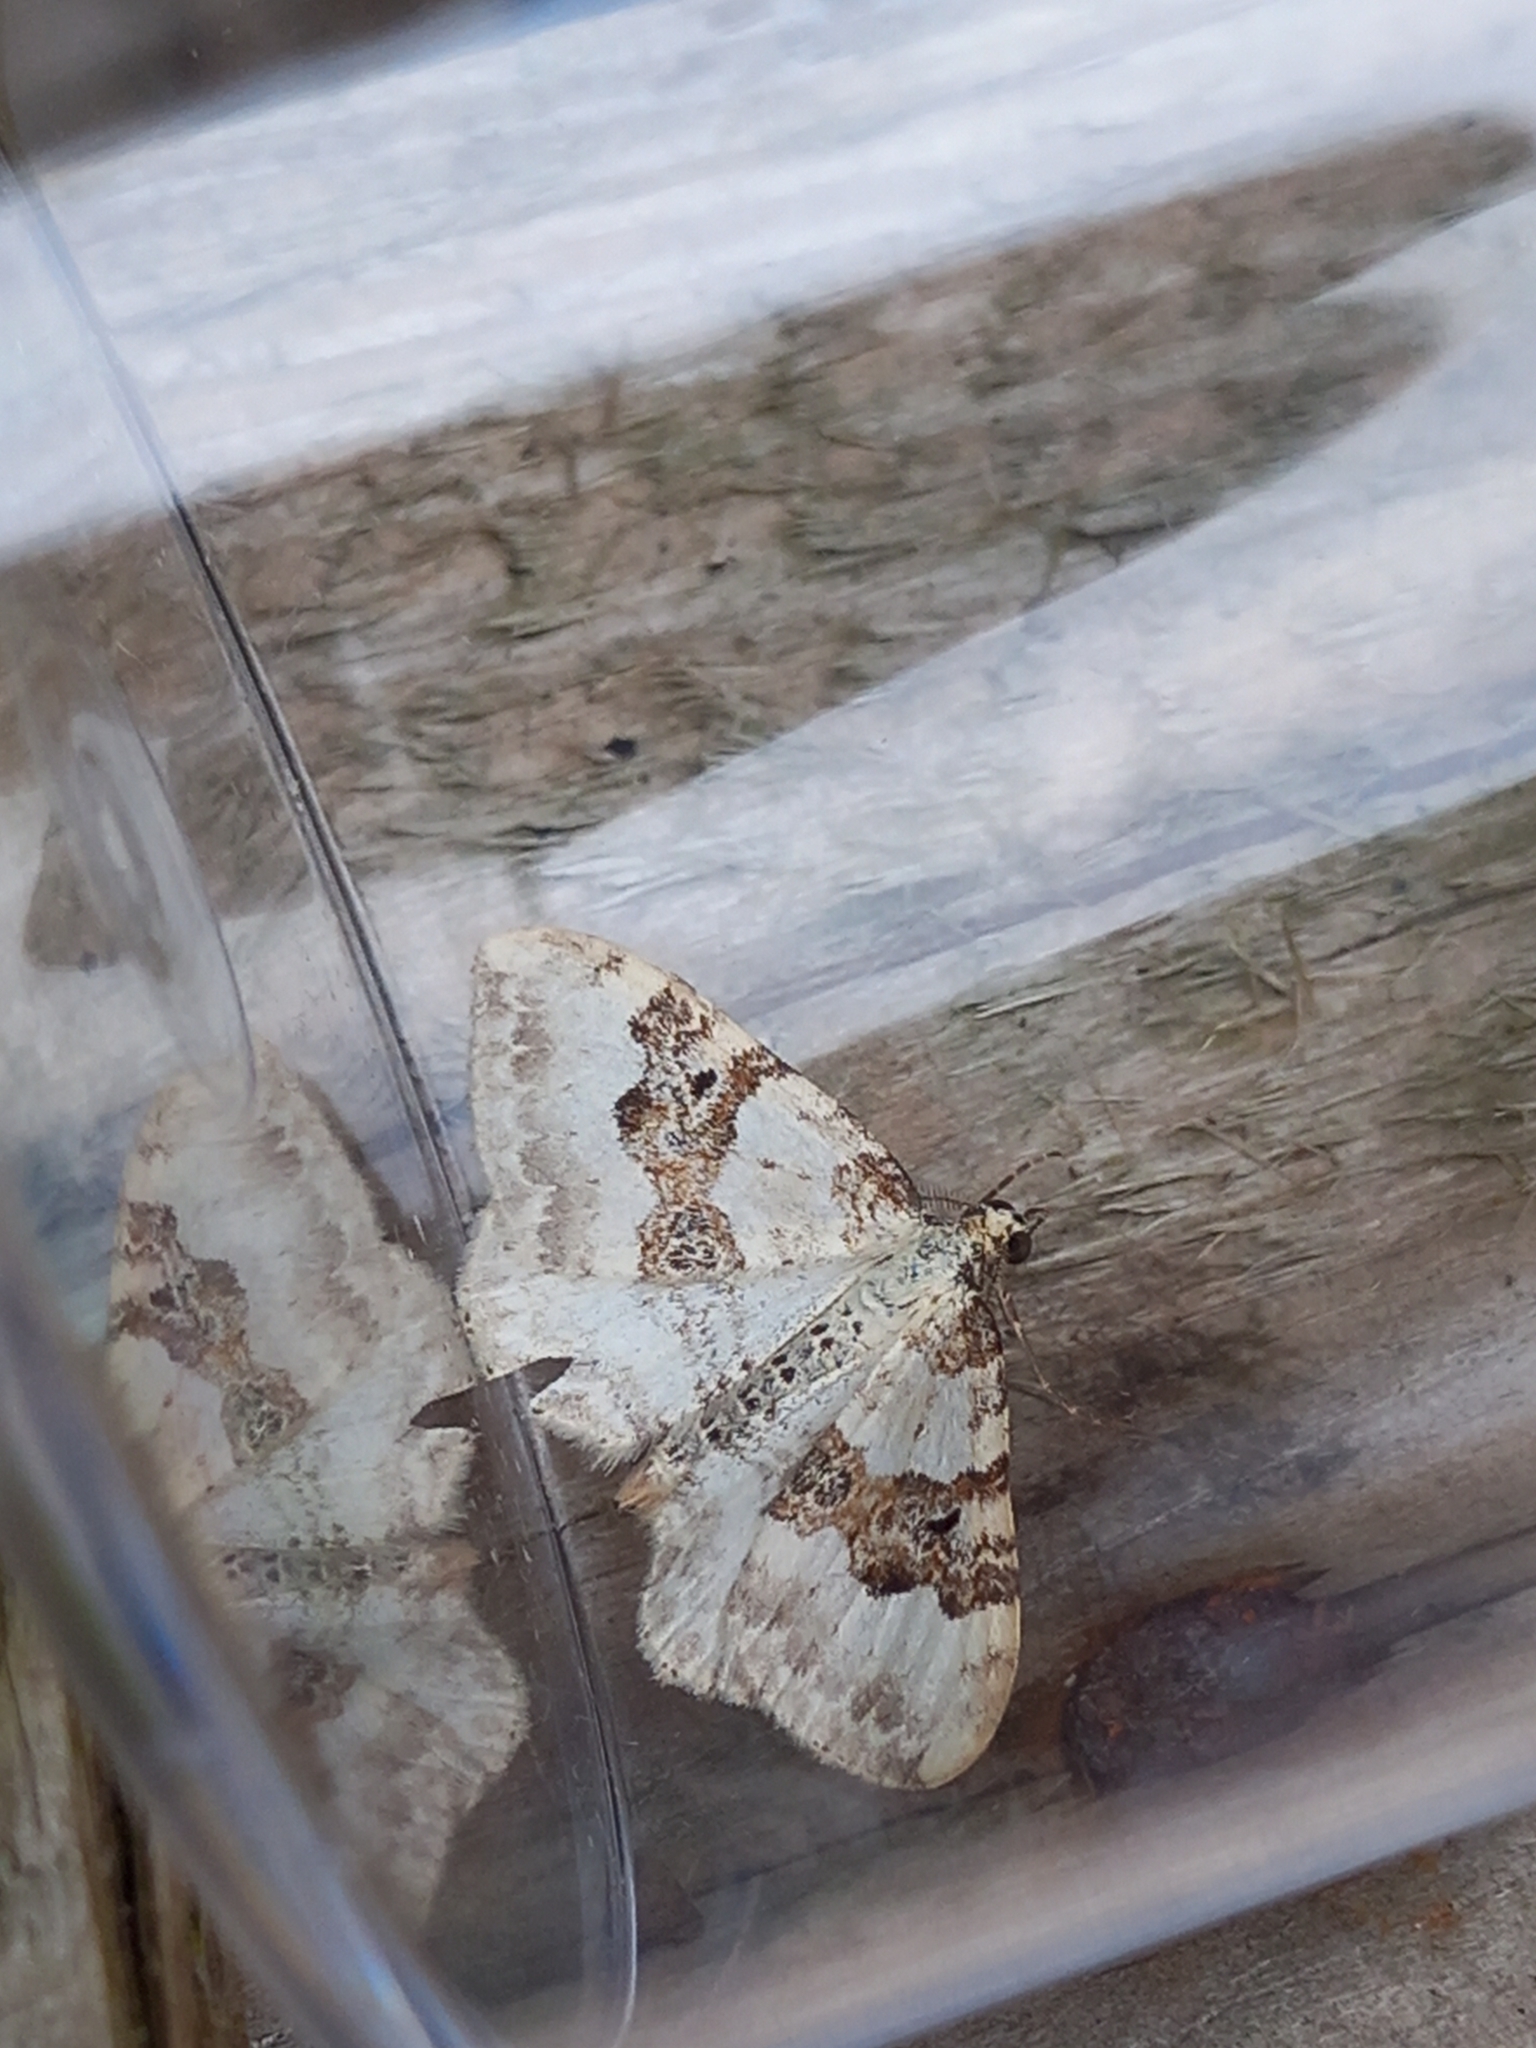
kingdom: Animalia
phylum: Arthropoda
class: Insecta
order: Lepidoptera
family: Geometridae
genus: Xanthorhoe
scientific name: Xanthorhoe montanata
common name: Silver-ground carpet
